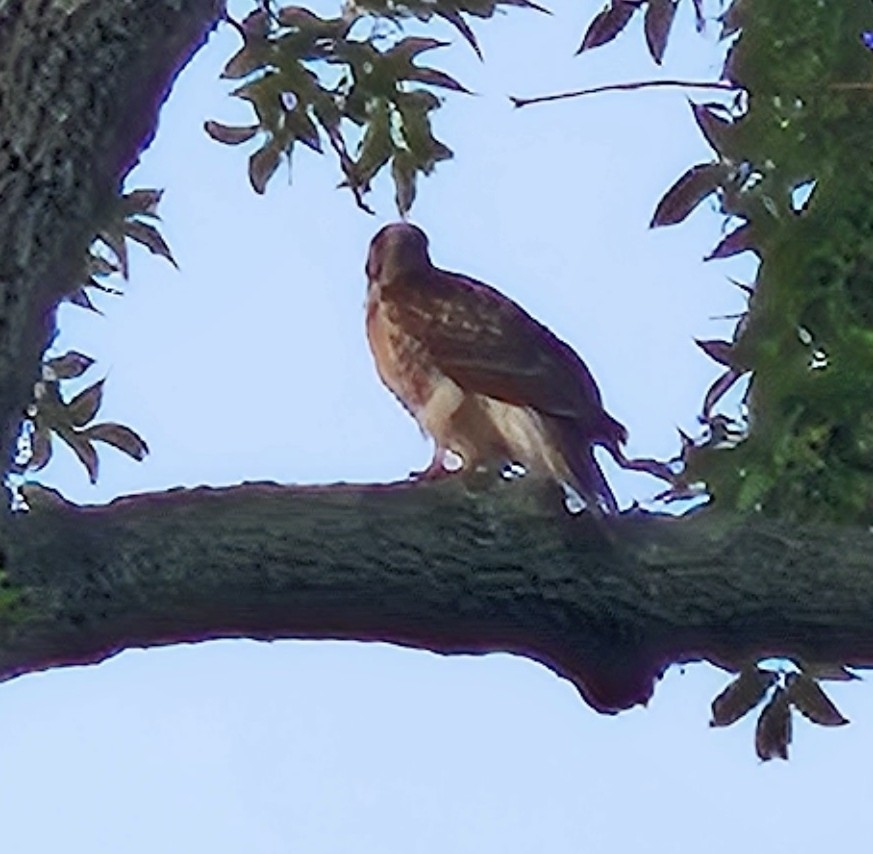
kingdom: Animalia
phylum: Chordata
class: Aves
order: Accipitriformes
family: Accipitridae
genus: Buteo
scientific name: Buteo jamaicensis
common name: Red-tailed hawk
